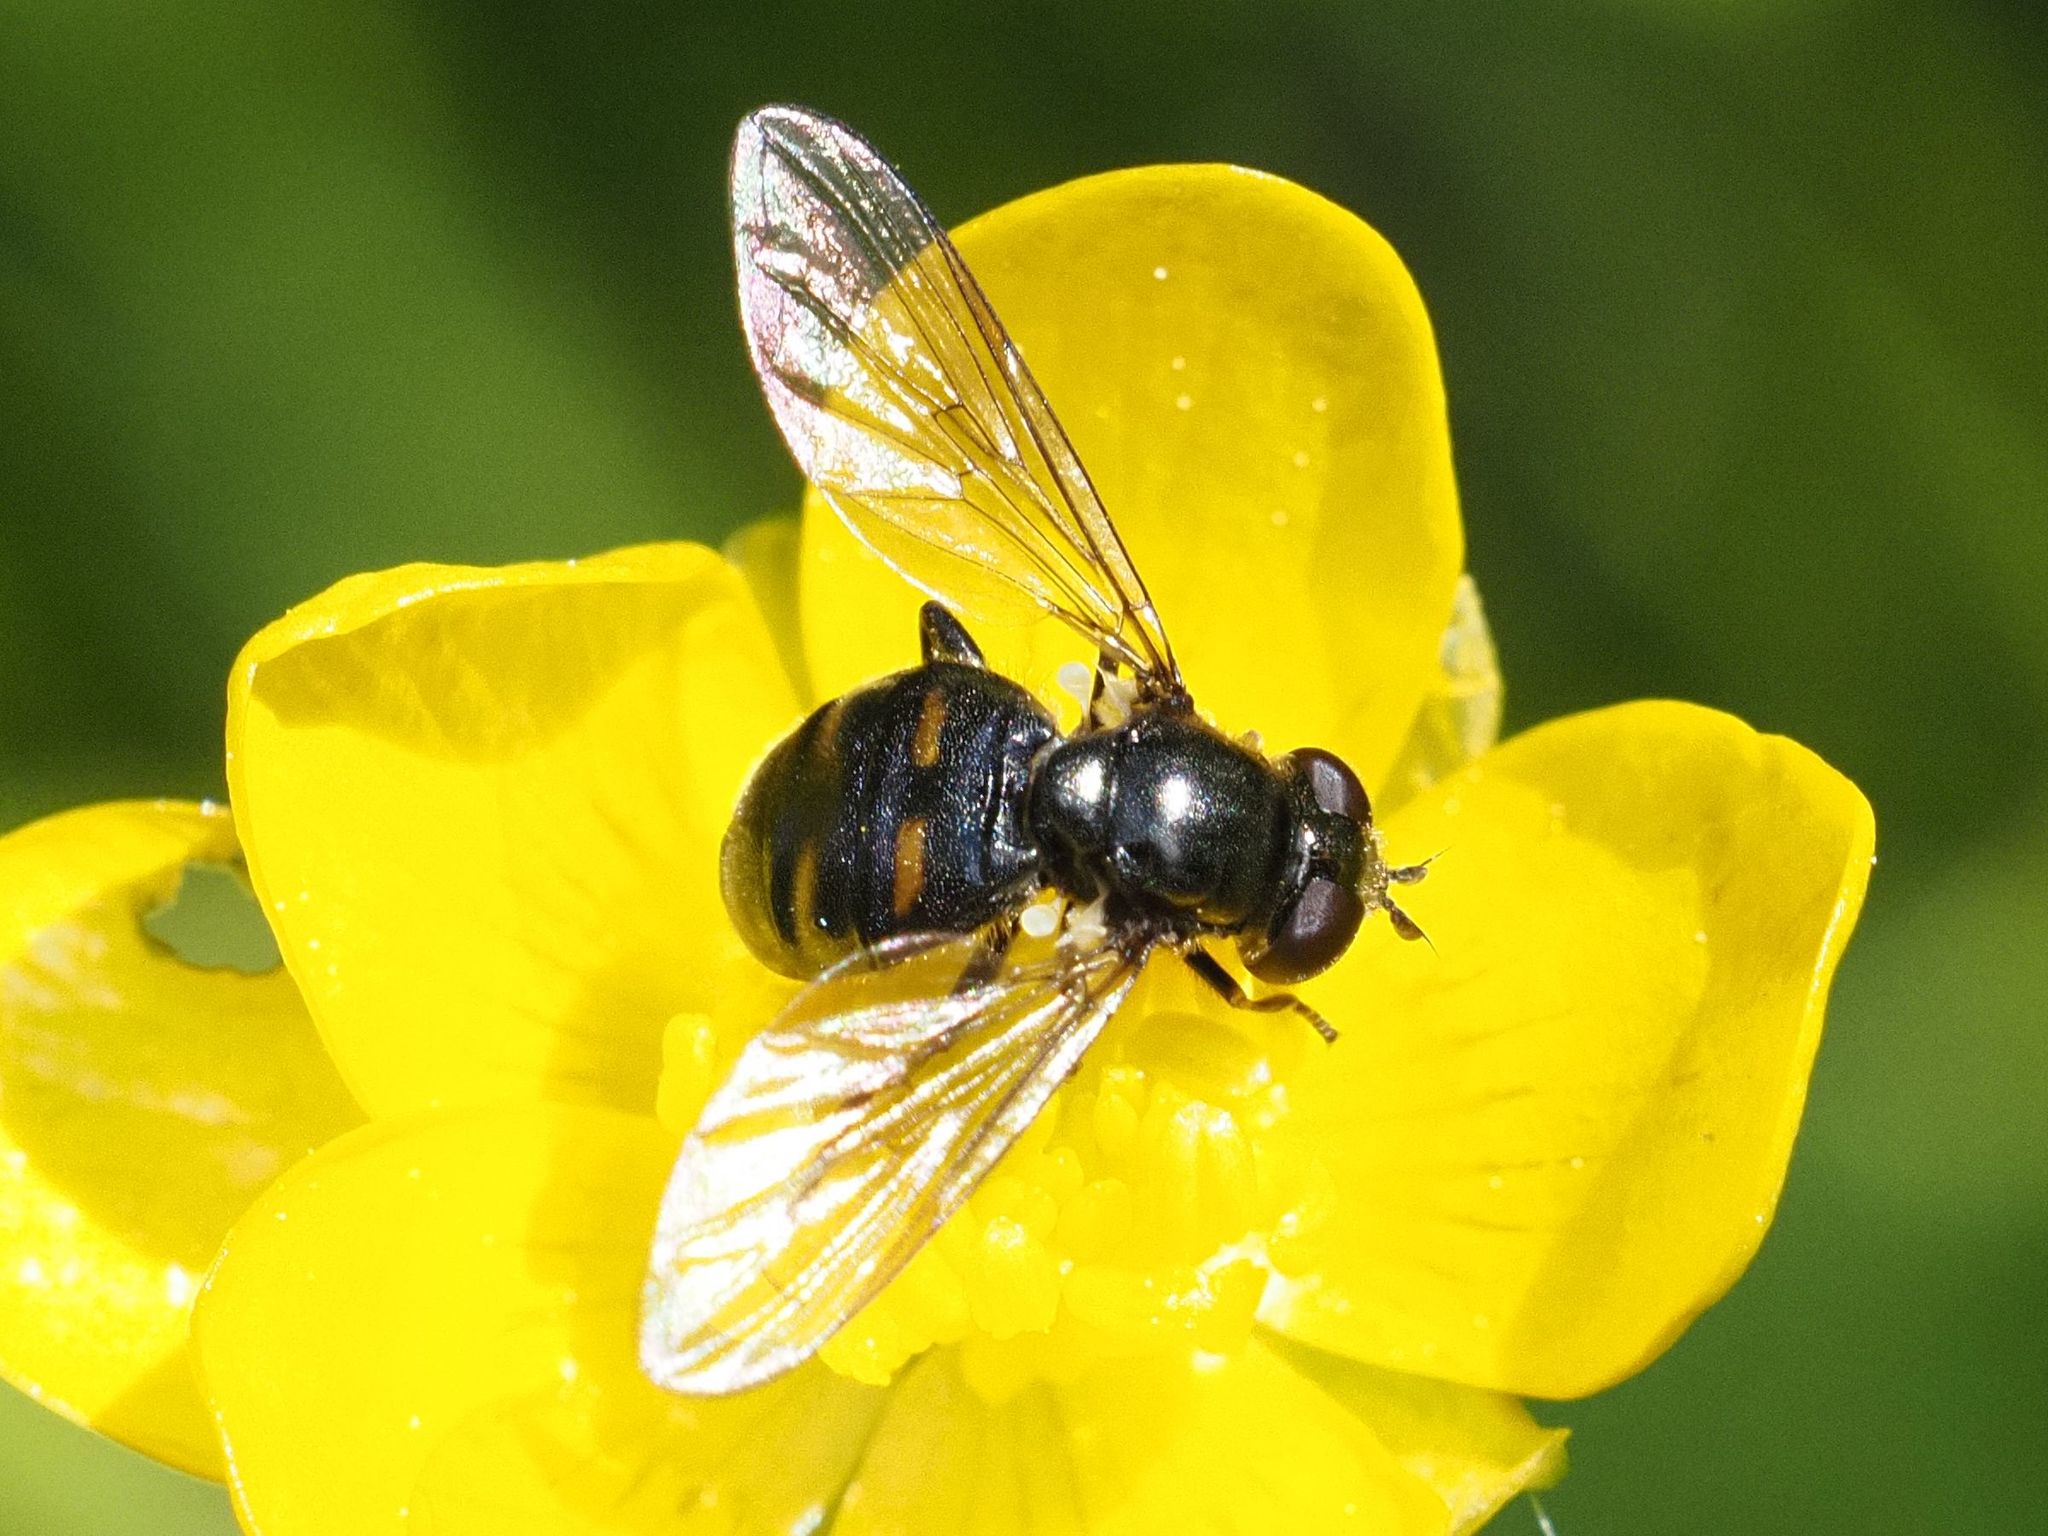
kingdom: Animalia
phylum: Arthropoda
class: Insecta
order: Diptera
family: Syrphidae
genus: Pipiza
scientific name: Pipiza quadrimaculata
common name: Four-spotted pipiza
